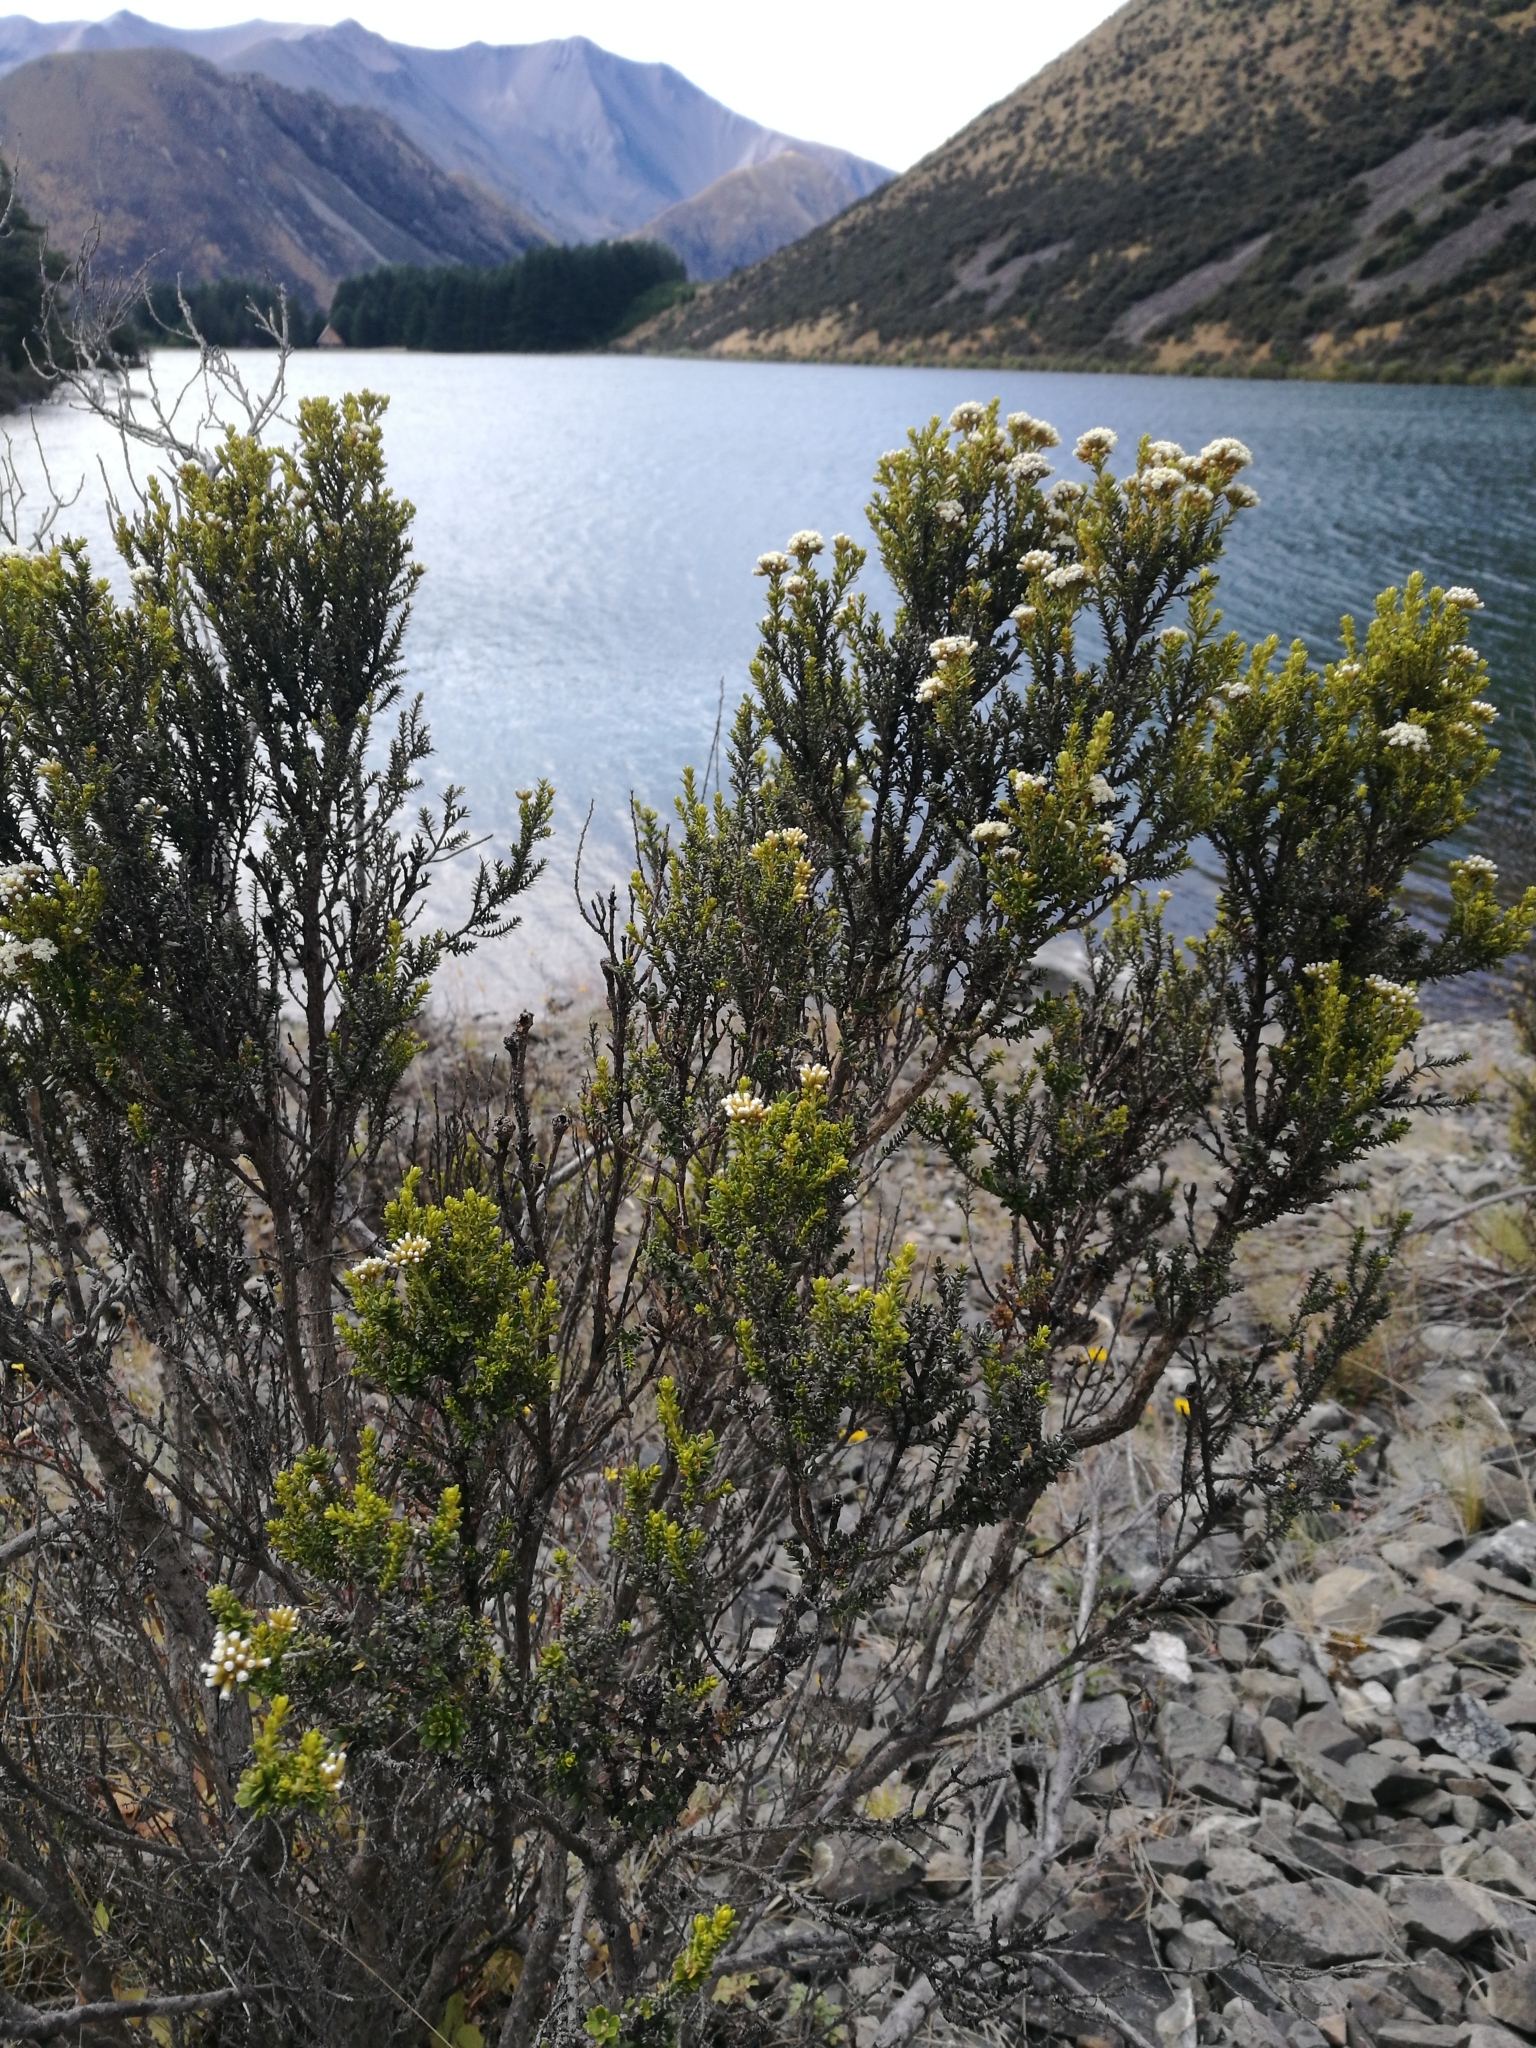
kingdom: Plantae
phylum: Tracheophyta
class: Magnoliopsida
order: Asterales
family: Asteraceae
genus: Ozothamnus
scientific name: Ozothamnus leptophyllus
